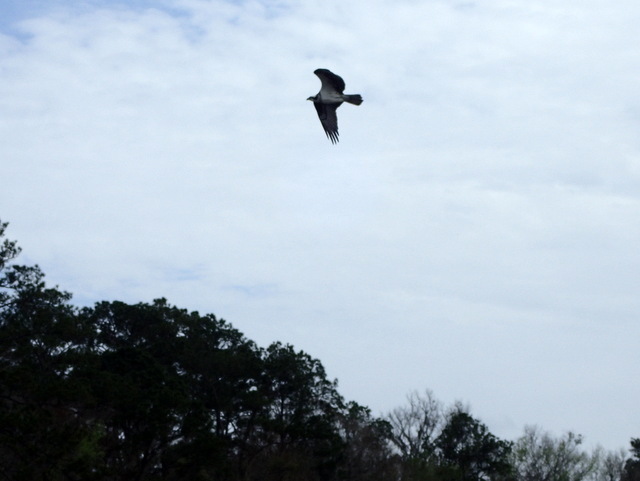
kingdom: Animalia
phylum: Chordata
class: Aves
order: Accipitriformes
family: Pandionidae
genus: Pandion
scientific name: Pandion haliaetus
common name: Osprey
